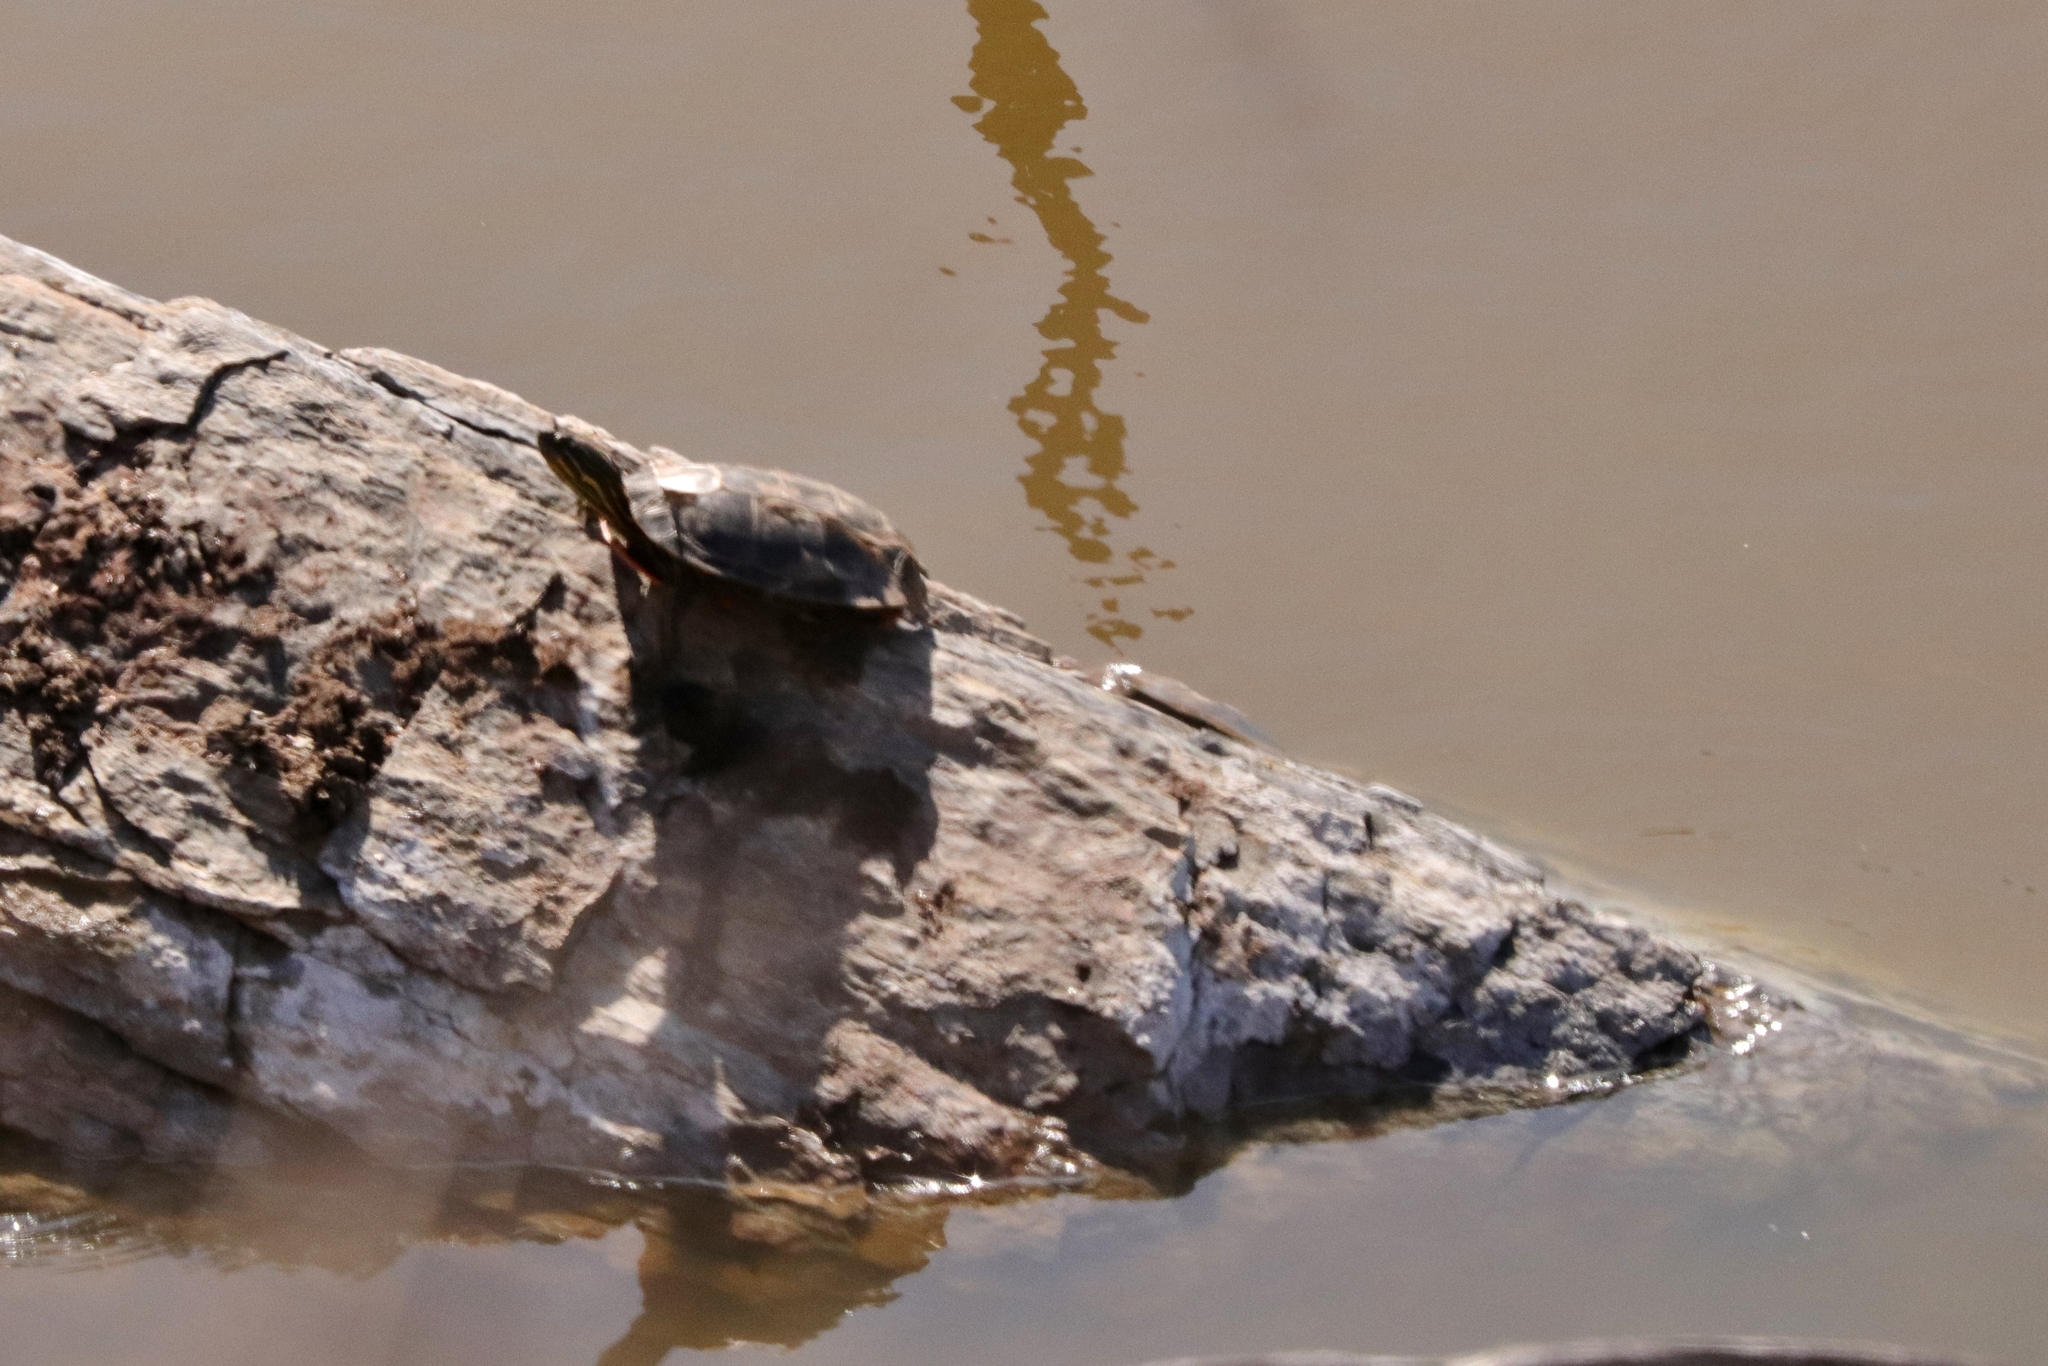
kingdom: Animalia
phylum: Chordata
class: Testudines
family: Emydidae
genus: Chrysemys
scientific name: Chrysemys picta
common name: Painted turtle
